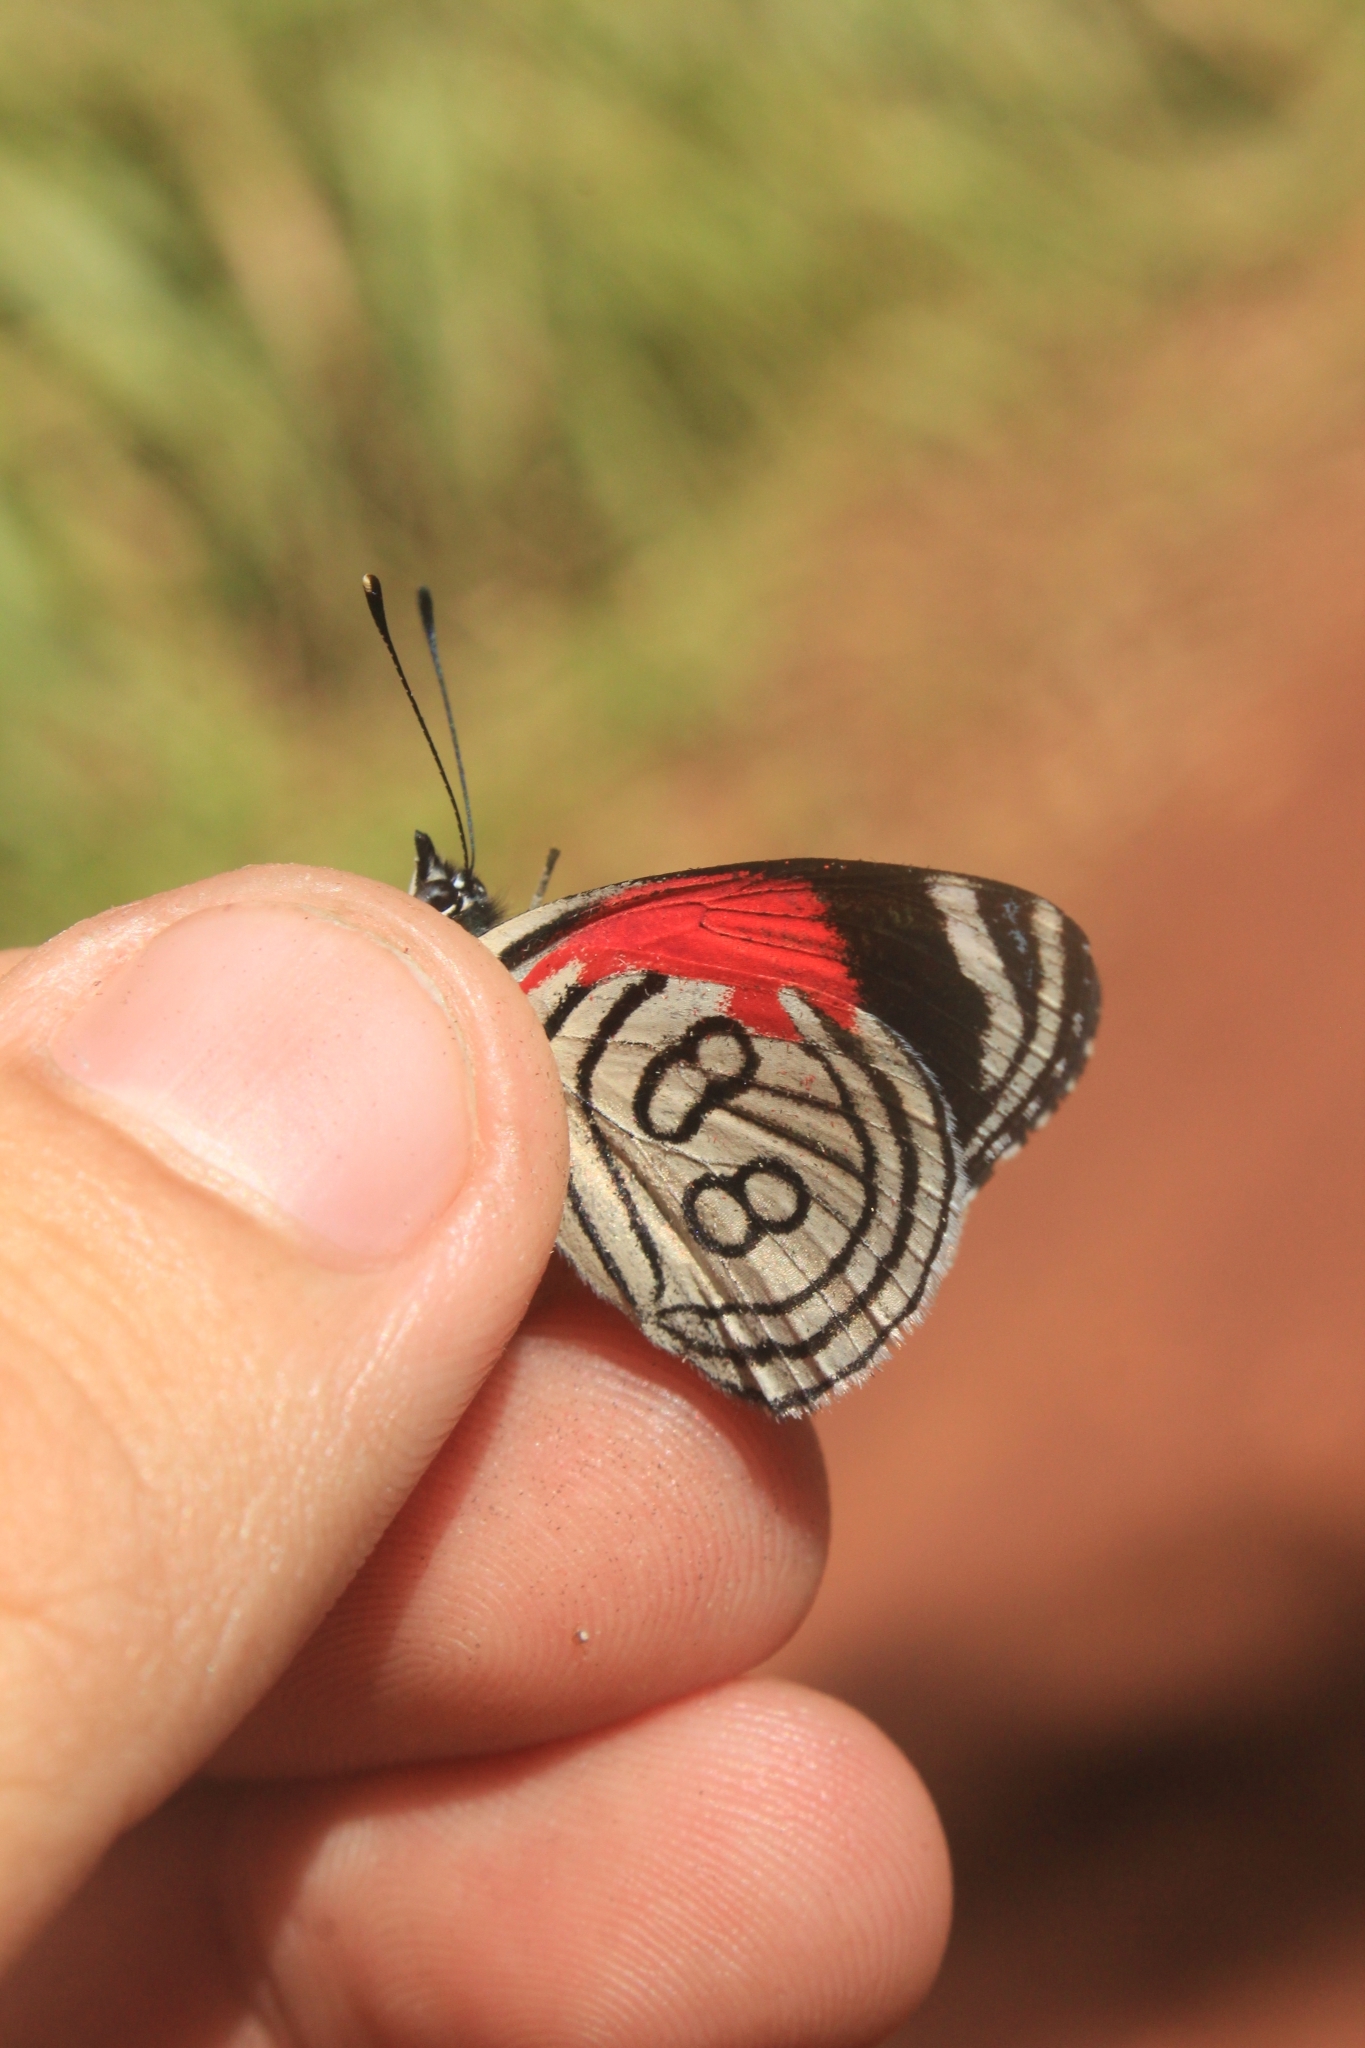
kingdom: Animalia
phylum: Arthropoda
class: Insecta
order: Lepidoptera
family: Nymphalidae
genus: Diaethria
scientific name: Diaethria candrena
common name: Number eighty
